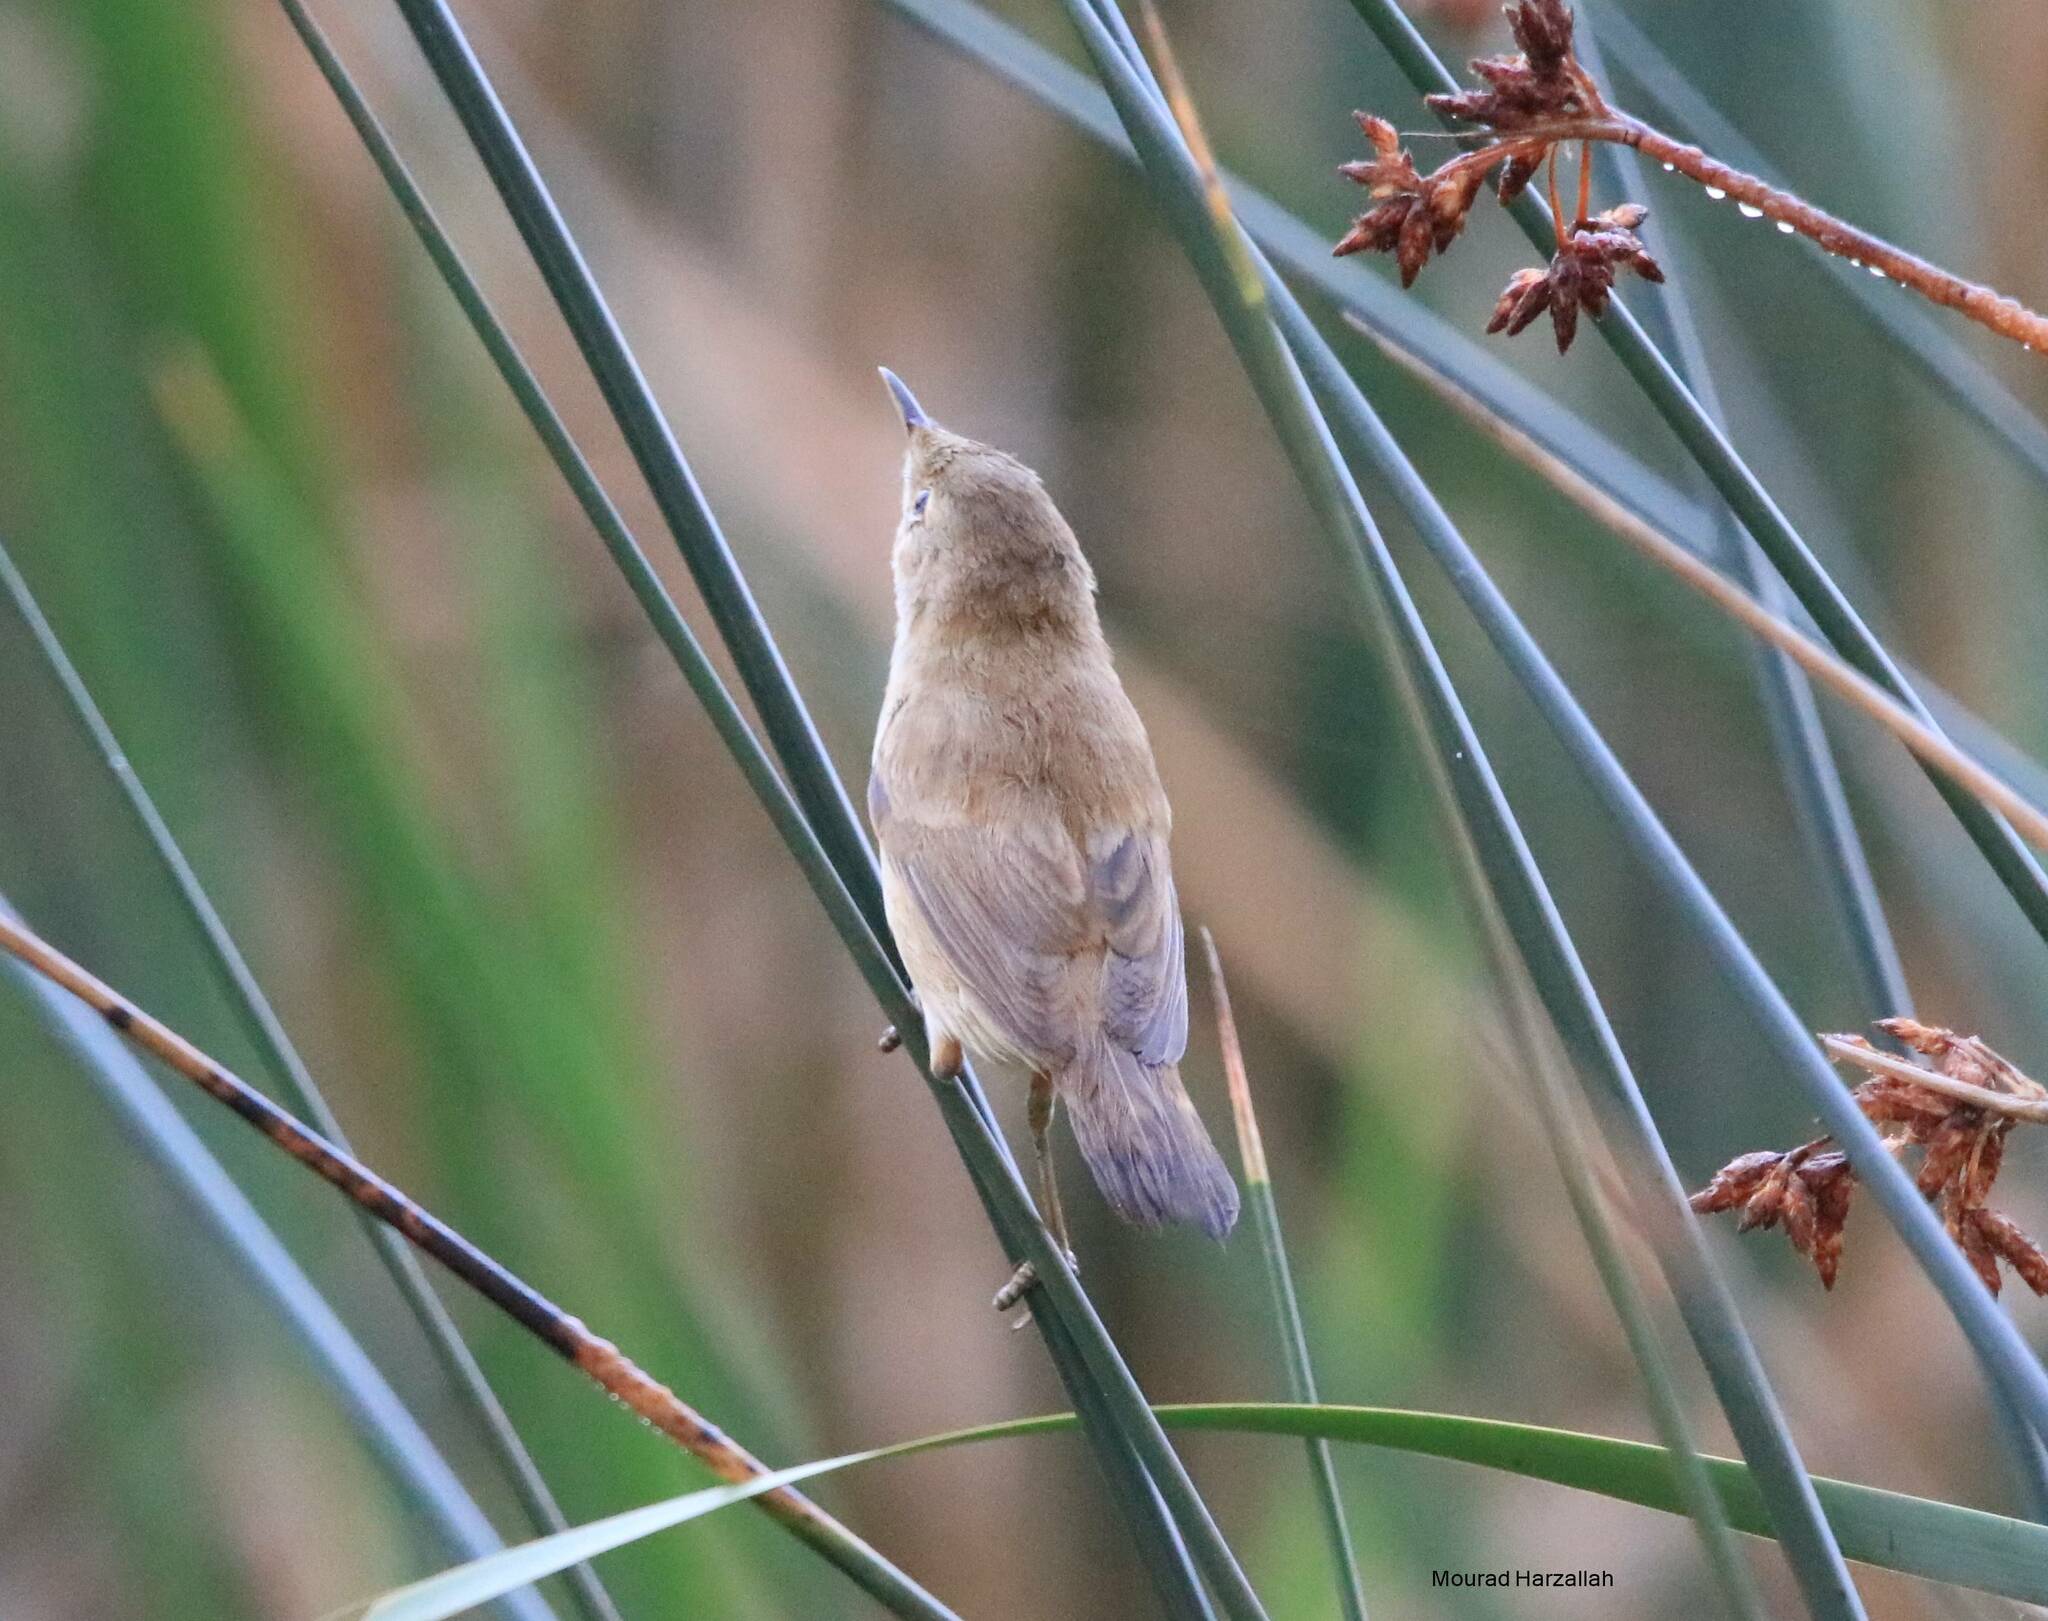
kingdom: Animalia
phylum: Chordata
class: Aves
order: Passeriformes
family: Acrocephalidae
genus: Acrocephalus
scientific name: Acrocephalus scirpaceus
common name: Eurasian reed warbler
